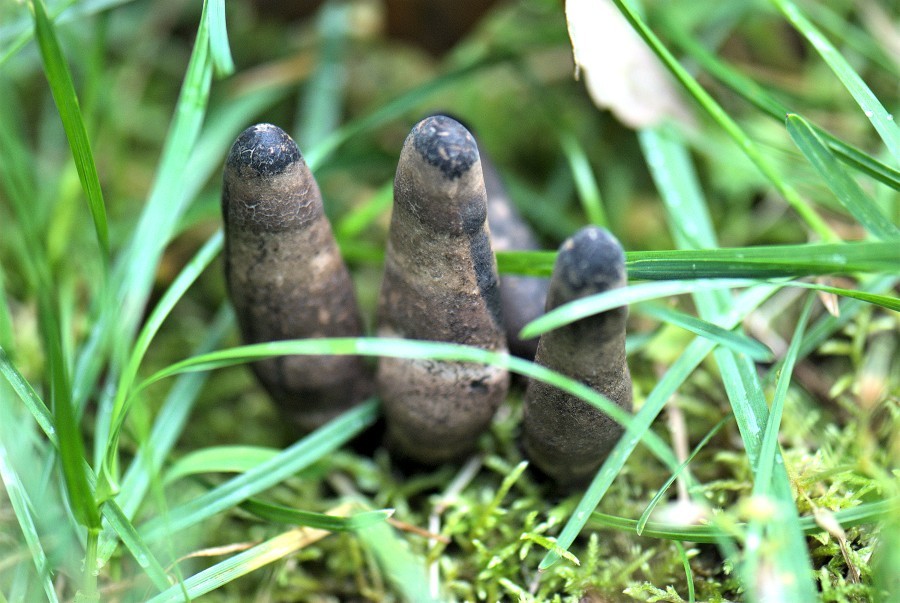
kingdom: Fungi
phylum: Ascomycota
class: Sordariomycetes
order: Xylariales
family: Xylariaceae
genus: Xylaria
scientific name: Xylaria polymorpha
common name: Dead man's fingers
